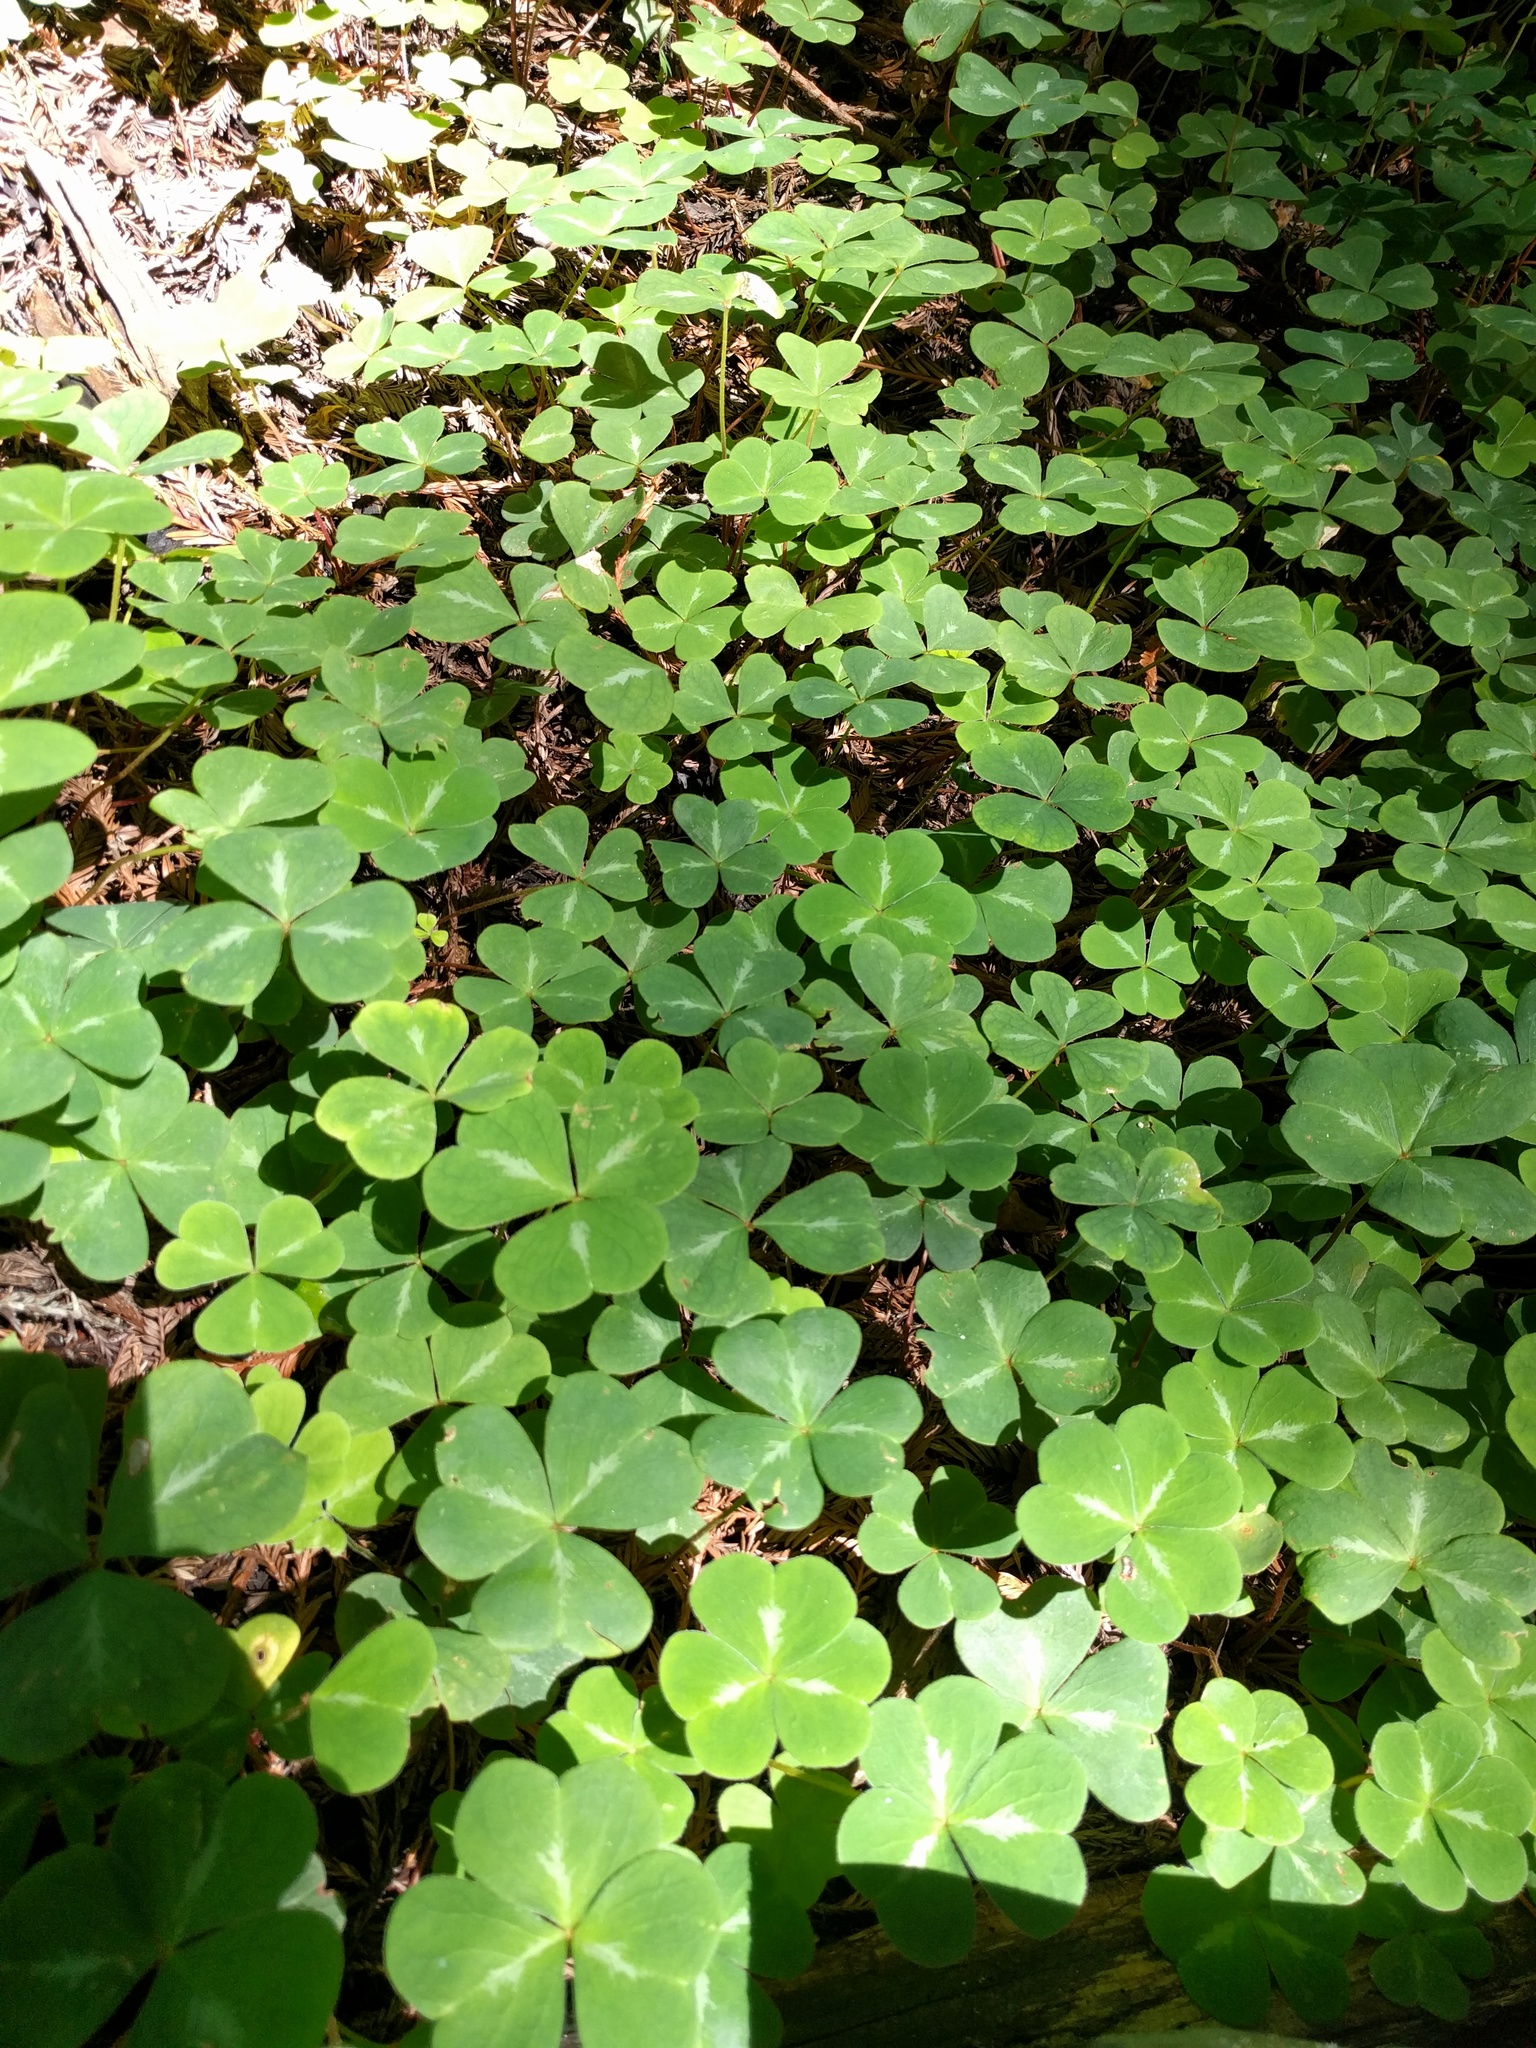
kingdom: Plantae
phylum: Tracheophyta
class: Magnoliopsida
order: Oxalidales
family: Oxalidaceae
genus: Oxalis
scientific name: Oxalis oregana
